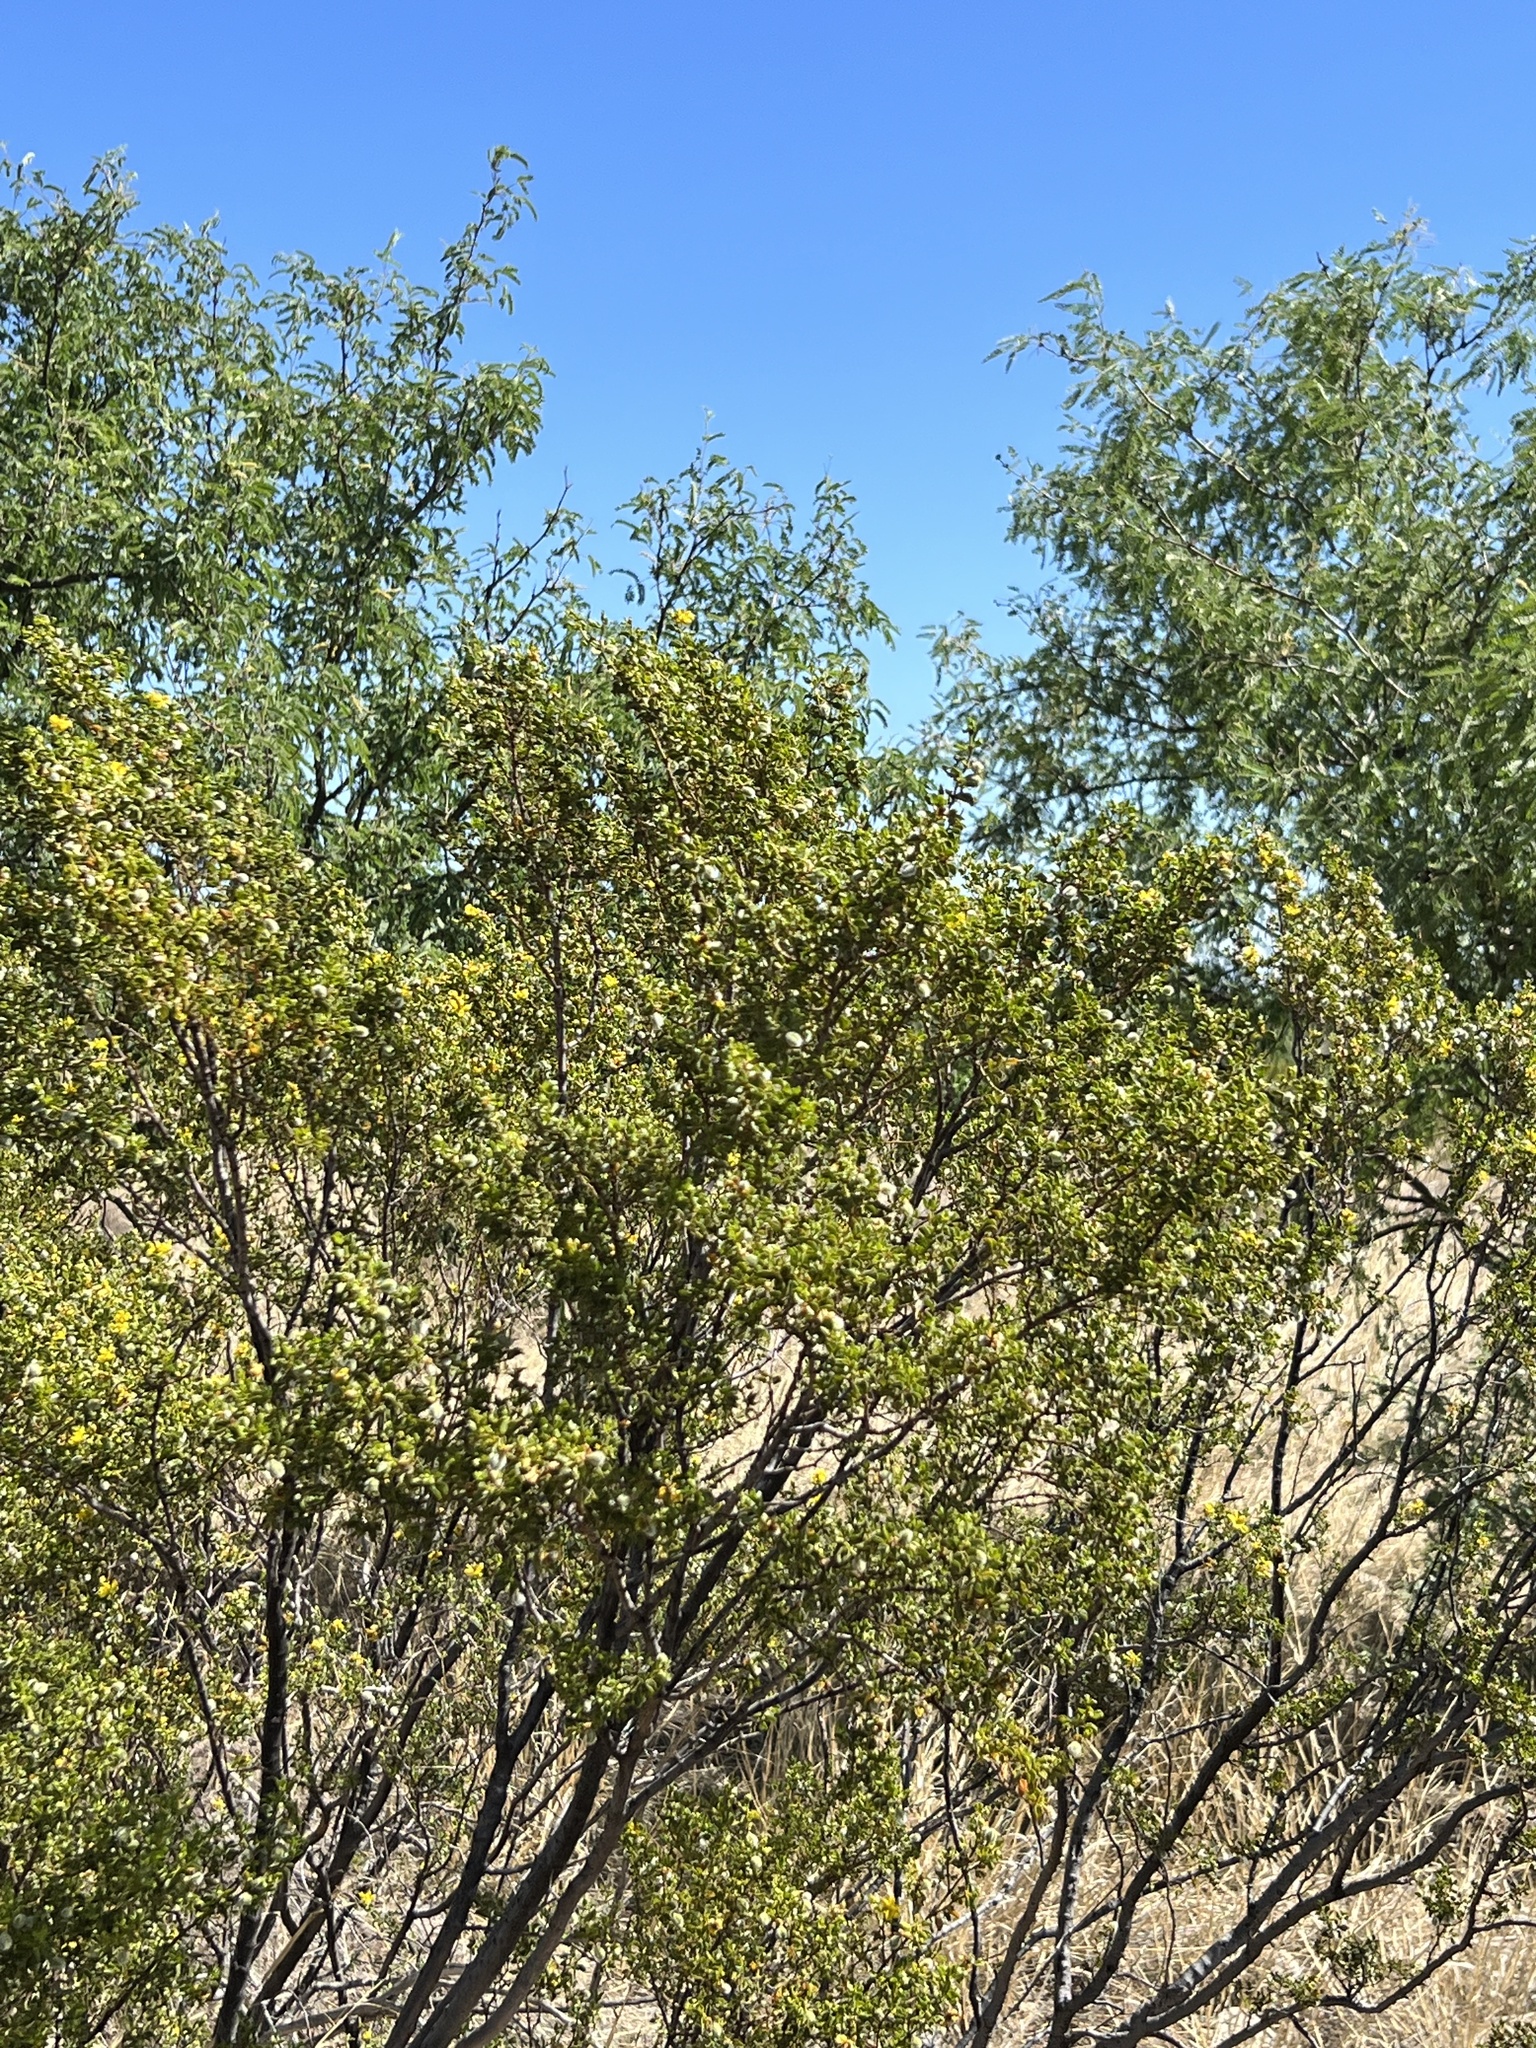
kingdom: Plantae
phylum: Tracheophyta
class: Magnoliopsida
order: Zygophyllales
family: Zygophyllaceae
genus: Larrea
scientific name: Larrea tridentata
